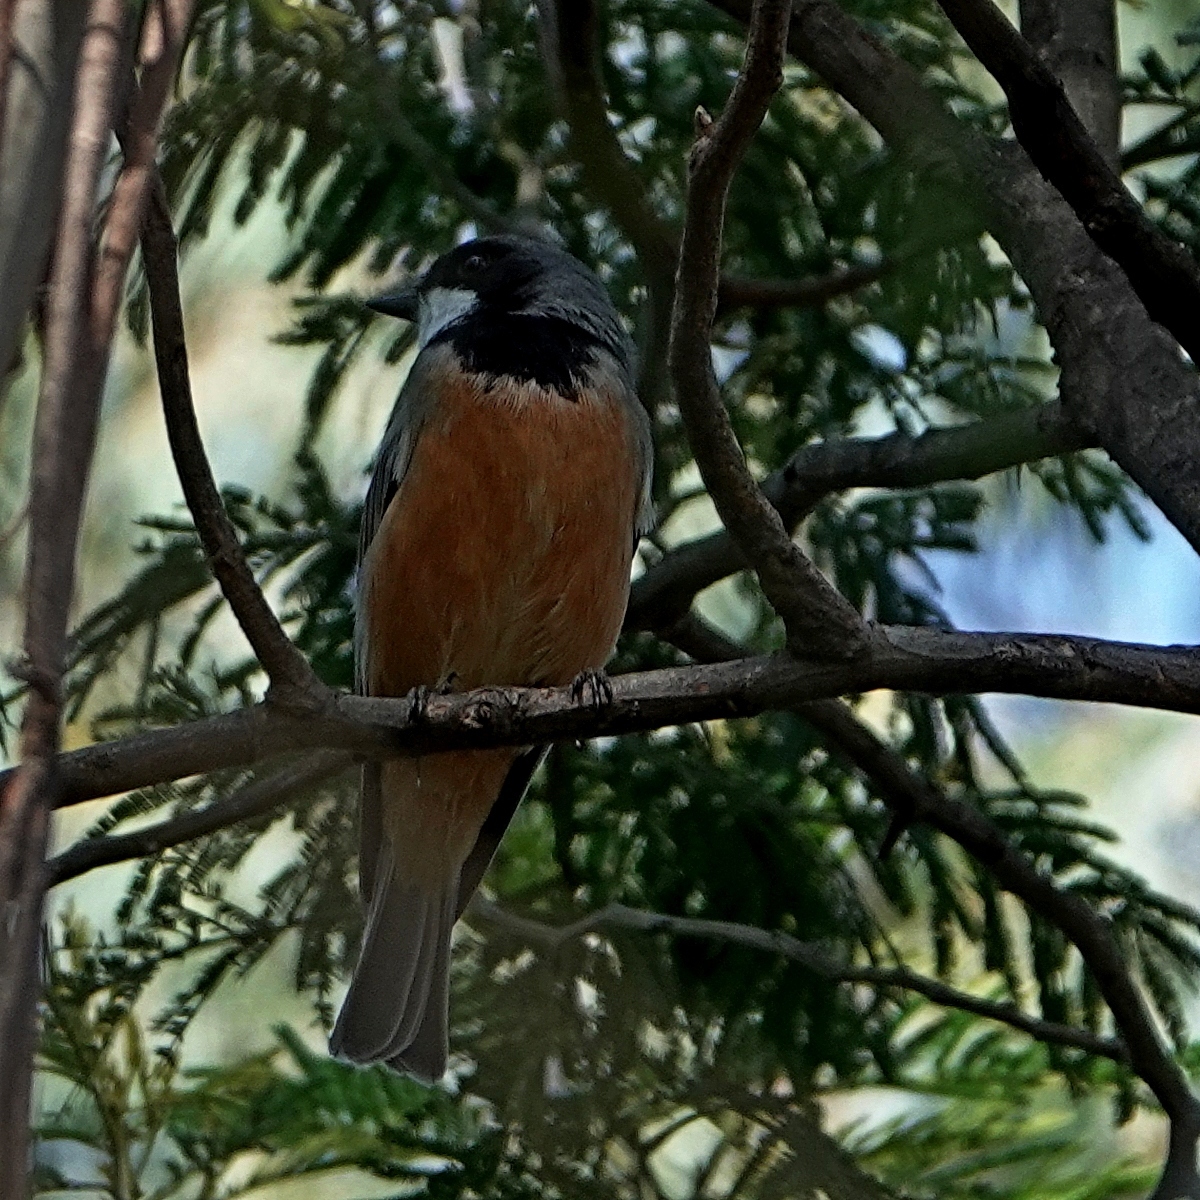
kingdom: Animalia
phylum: Chordata
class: Aves
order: Passeriformes
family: Pachycephalidae
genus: Pachycephala
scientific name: Pachycephala rufiventris
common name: Rufous whistler
